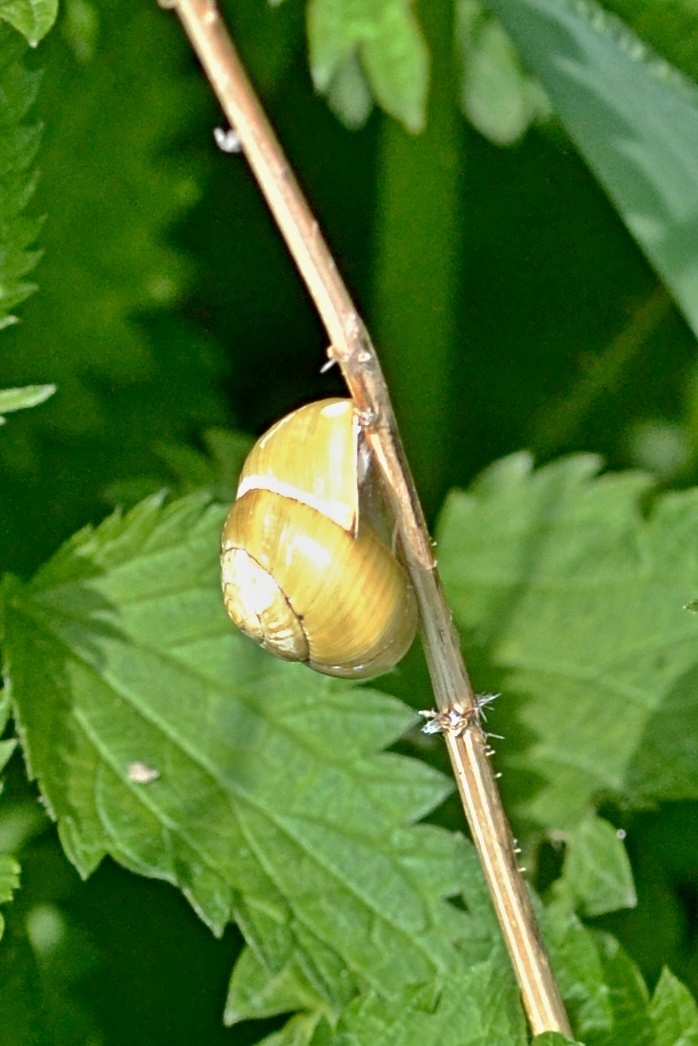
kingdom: Animalia
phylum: Mollusca
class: Gastropoda
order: Stylommatophora
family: Helicidae
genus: Cepaea
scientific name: Cepaea hortensis
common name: White-lip gardensnail
